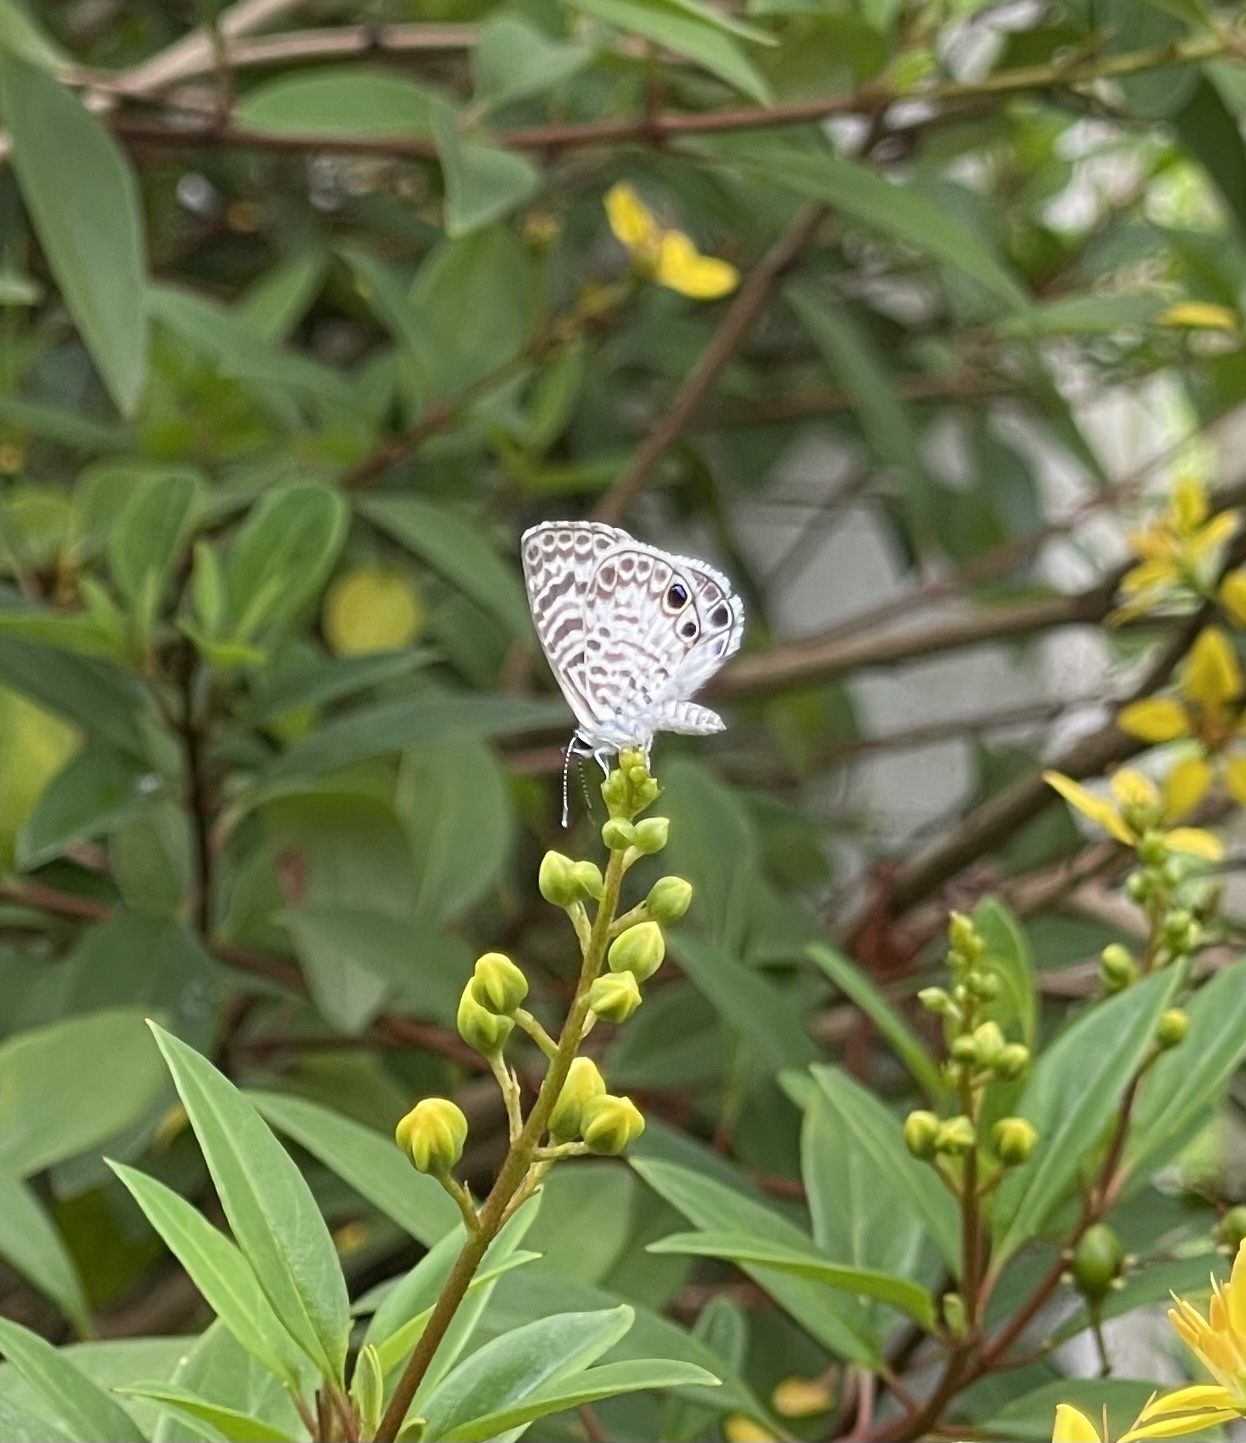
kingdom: Animalia
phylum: Arthropoda
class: Insecta
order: Lepidoptera
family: Lycaenidae
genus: Leptotes
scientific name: Leptotes cassius
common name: Cassius blue
